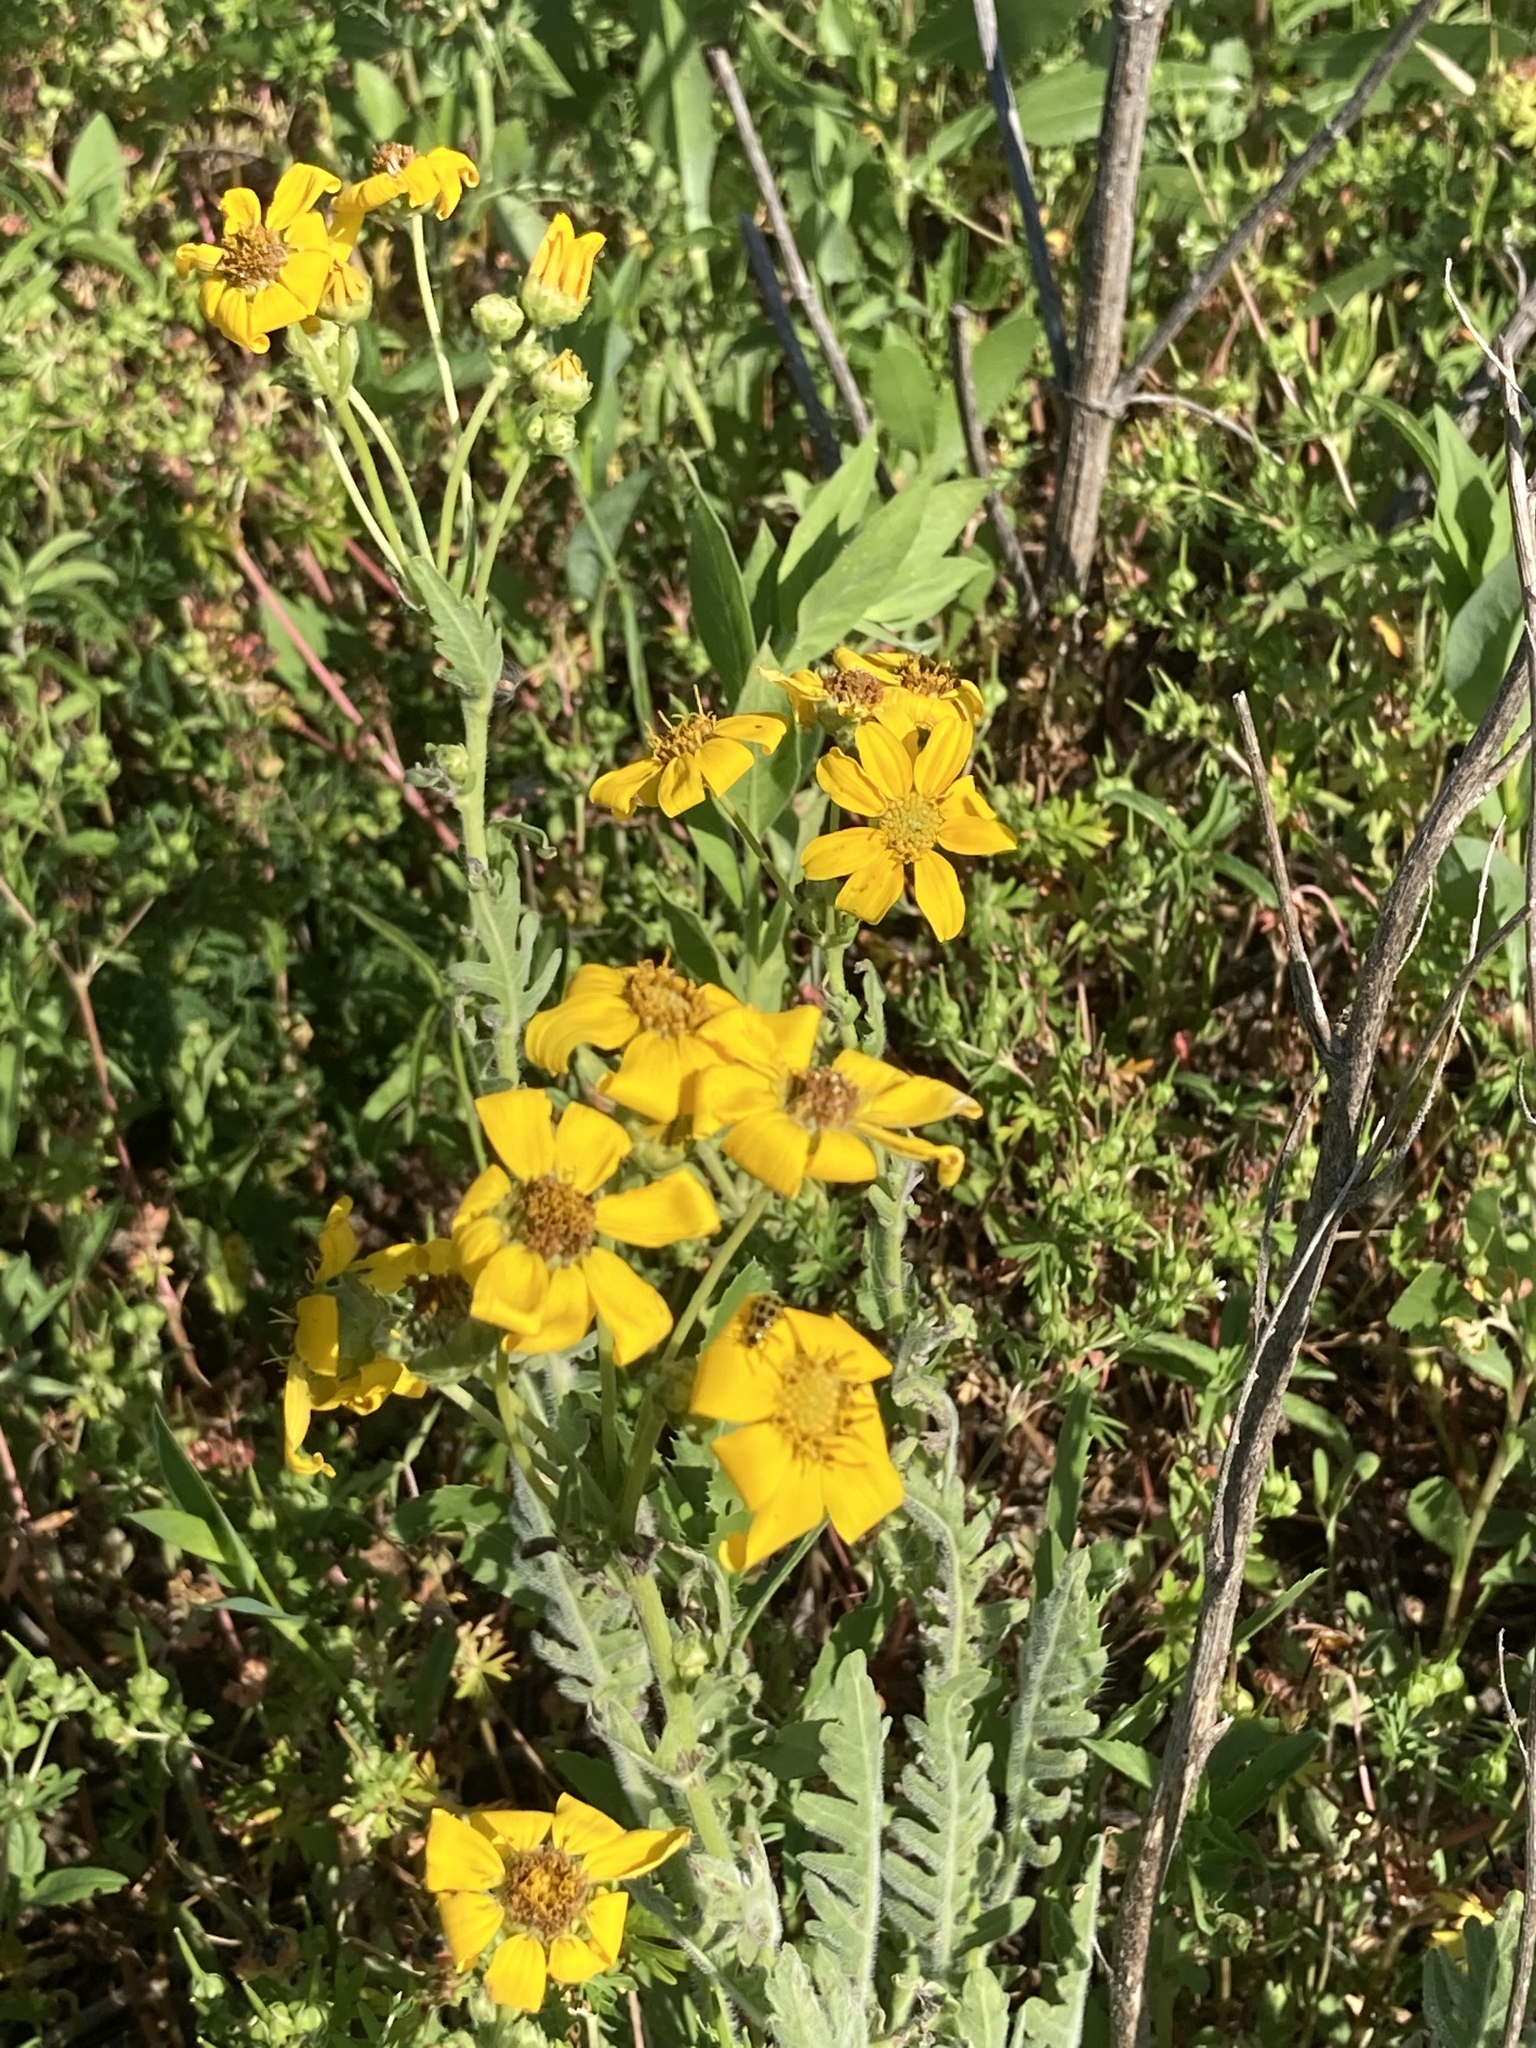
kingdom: Plantae
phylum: Tracheophyta
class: Magnoliopsida
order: Asterales
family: Asteraceae
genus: Engelmannia
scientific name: Engelmannia peristenia
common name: Engelmann's daisy
